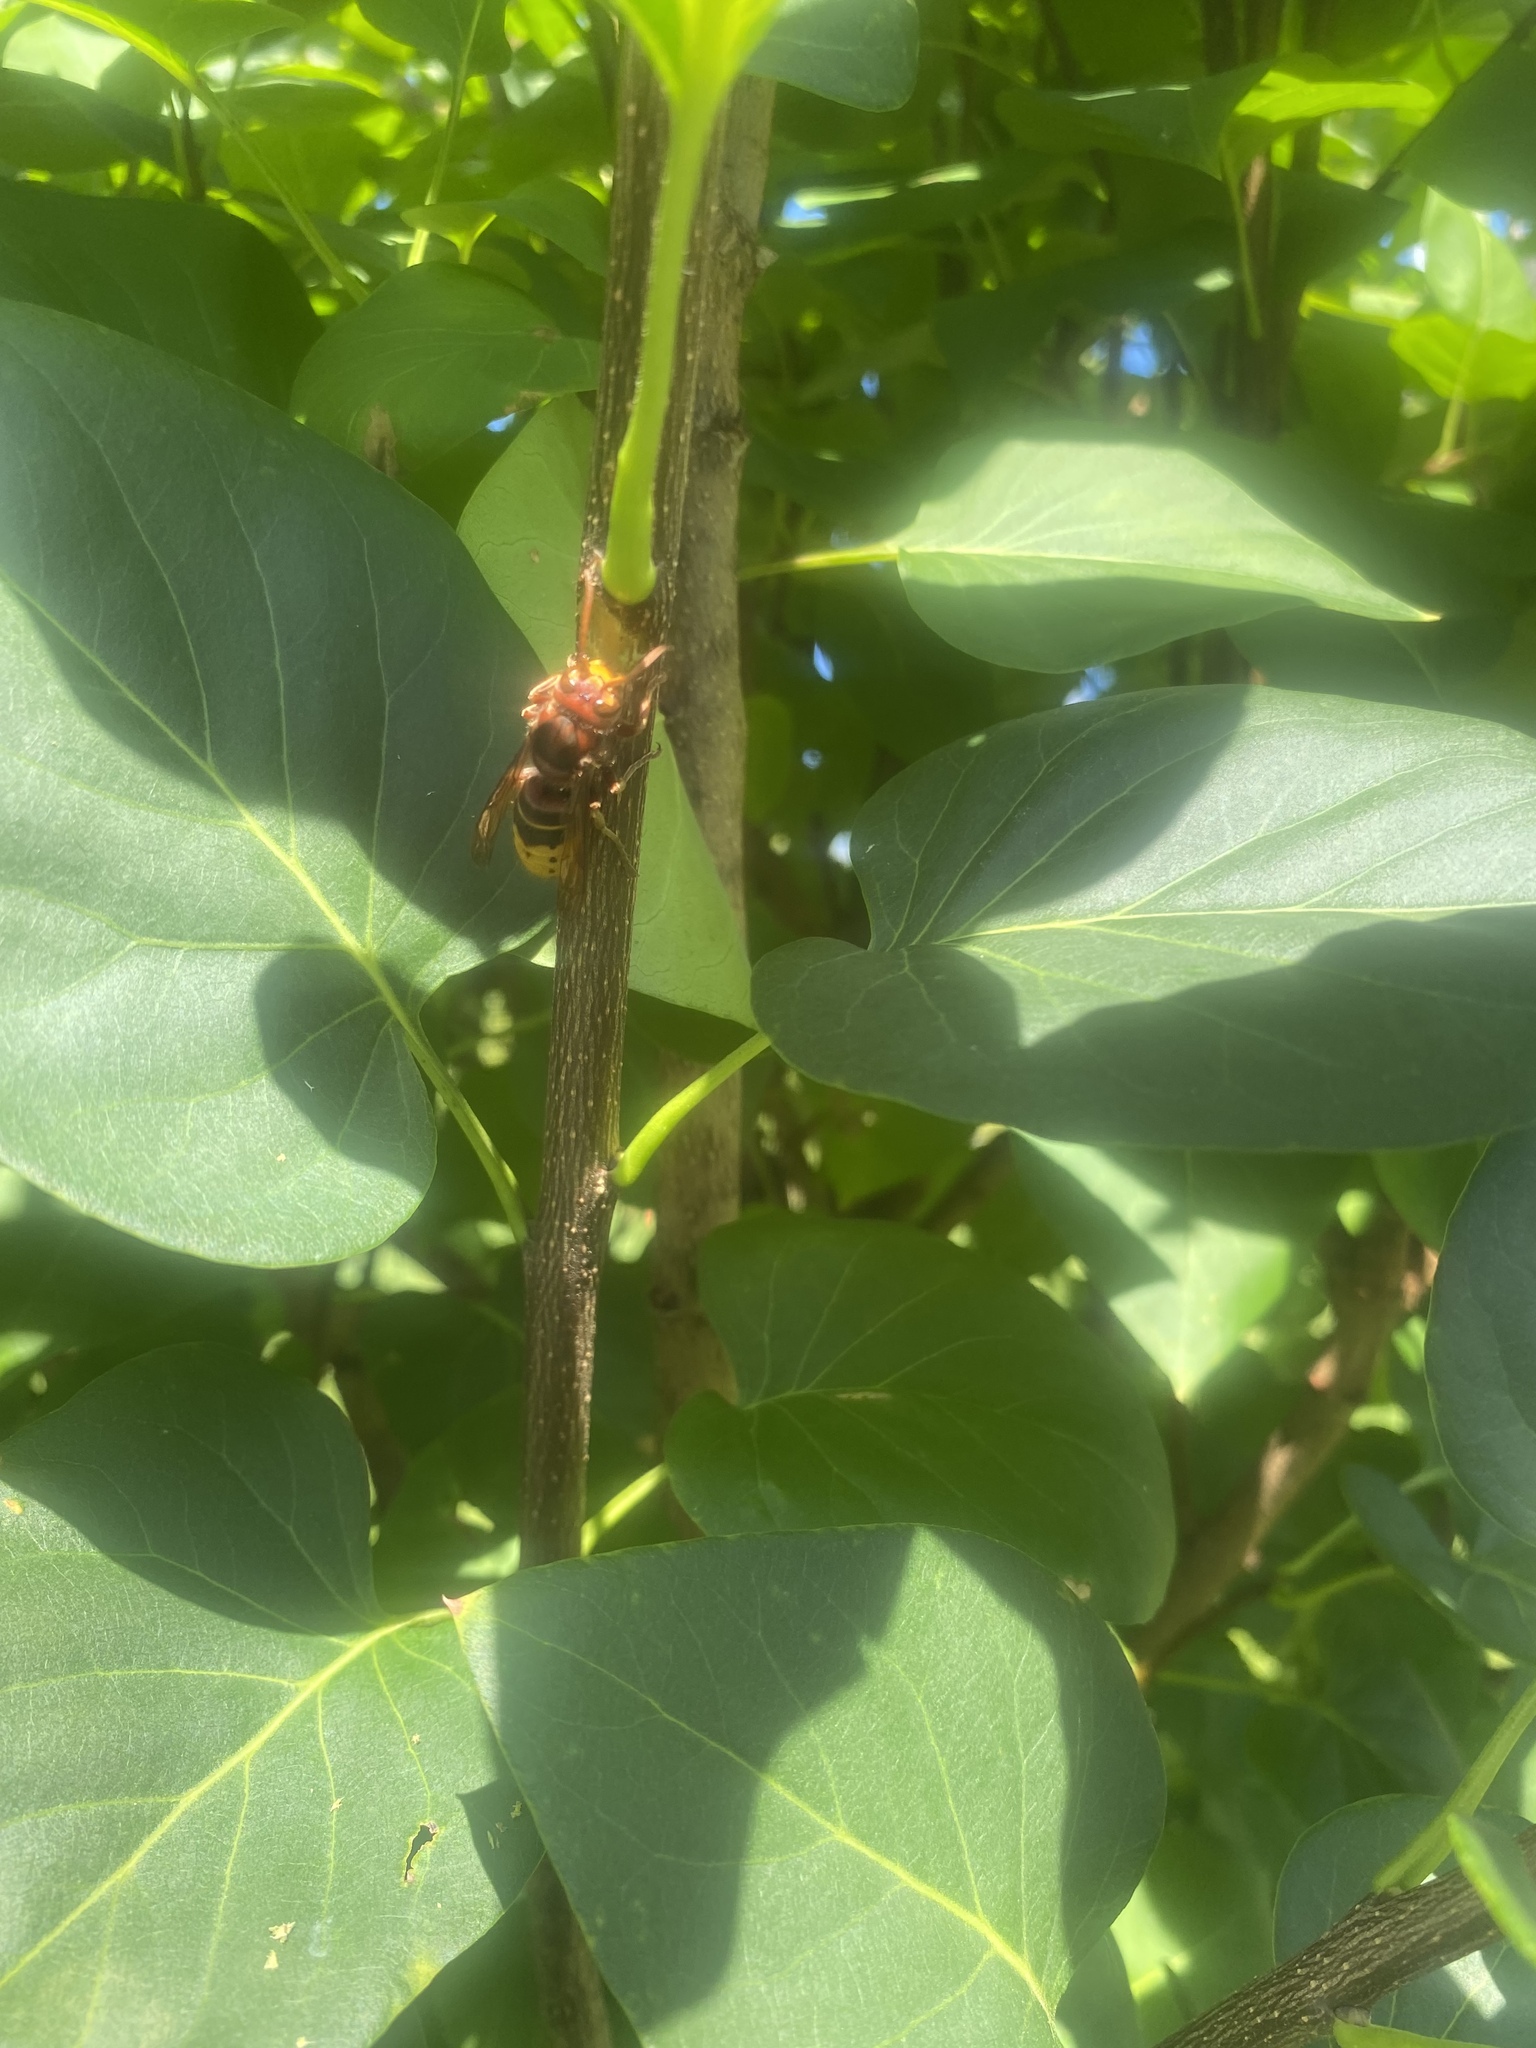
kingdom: Animalia
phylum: Arthropoda
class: Insecta
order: Hymenoptera
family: Vespidae
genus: Vespa
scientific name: Vespa crabro
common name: Hornet
